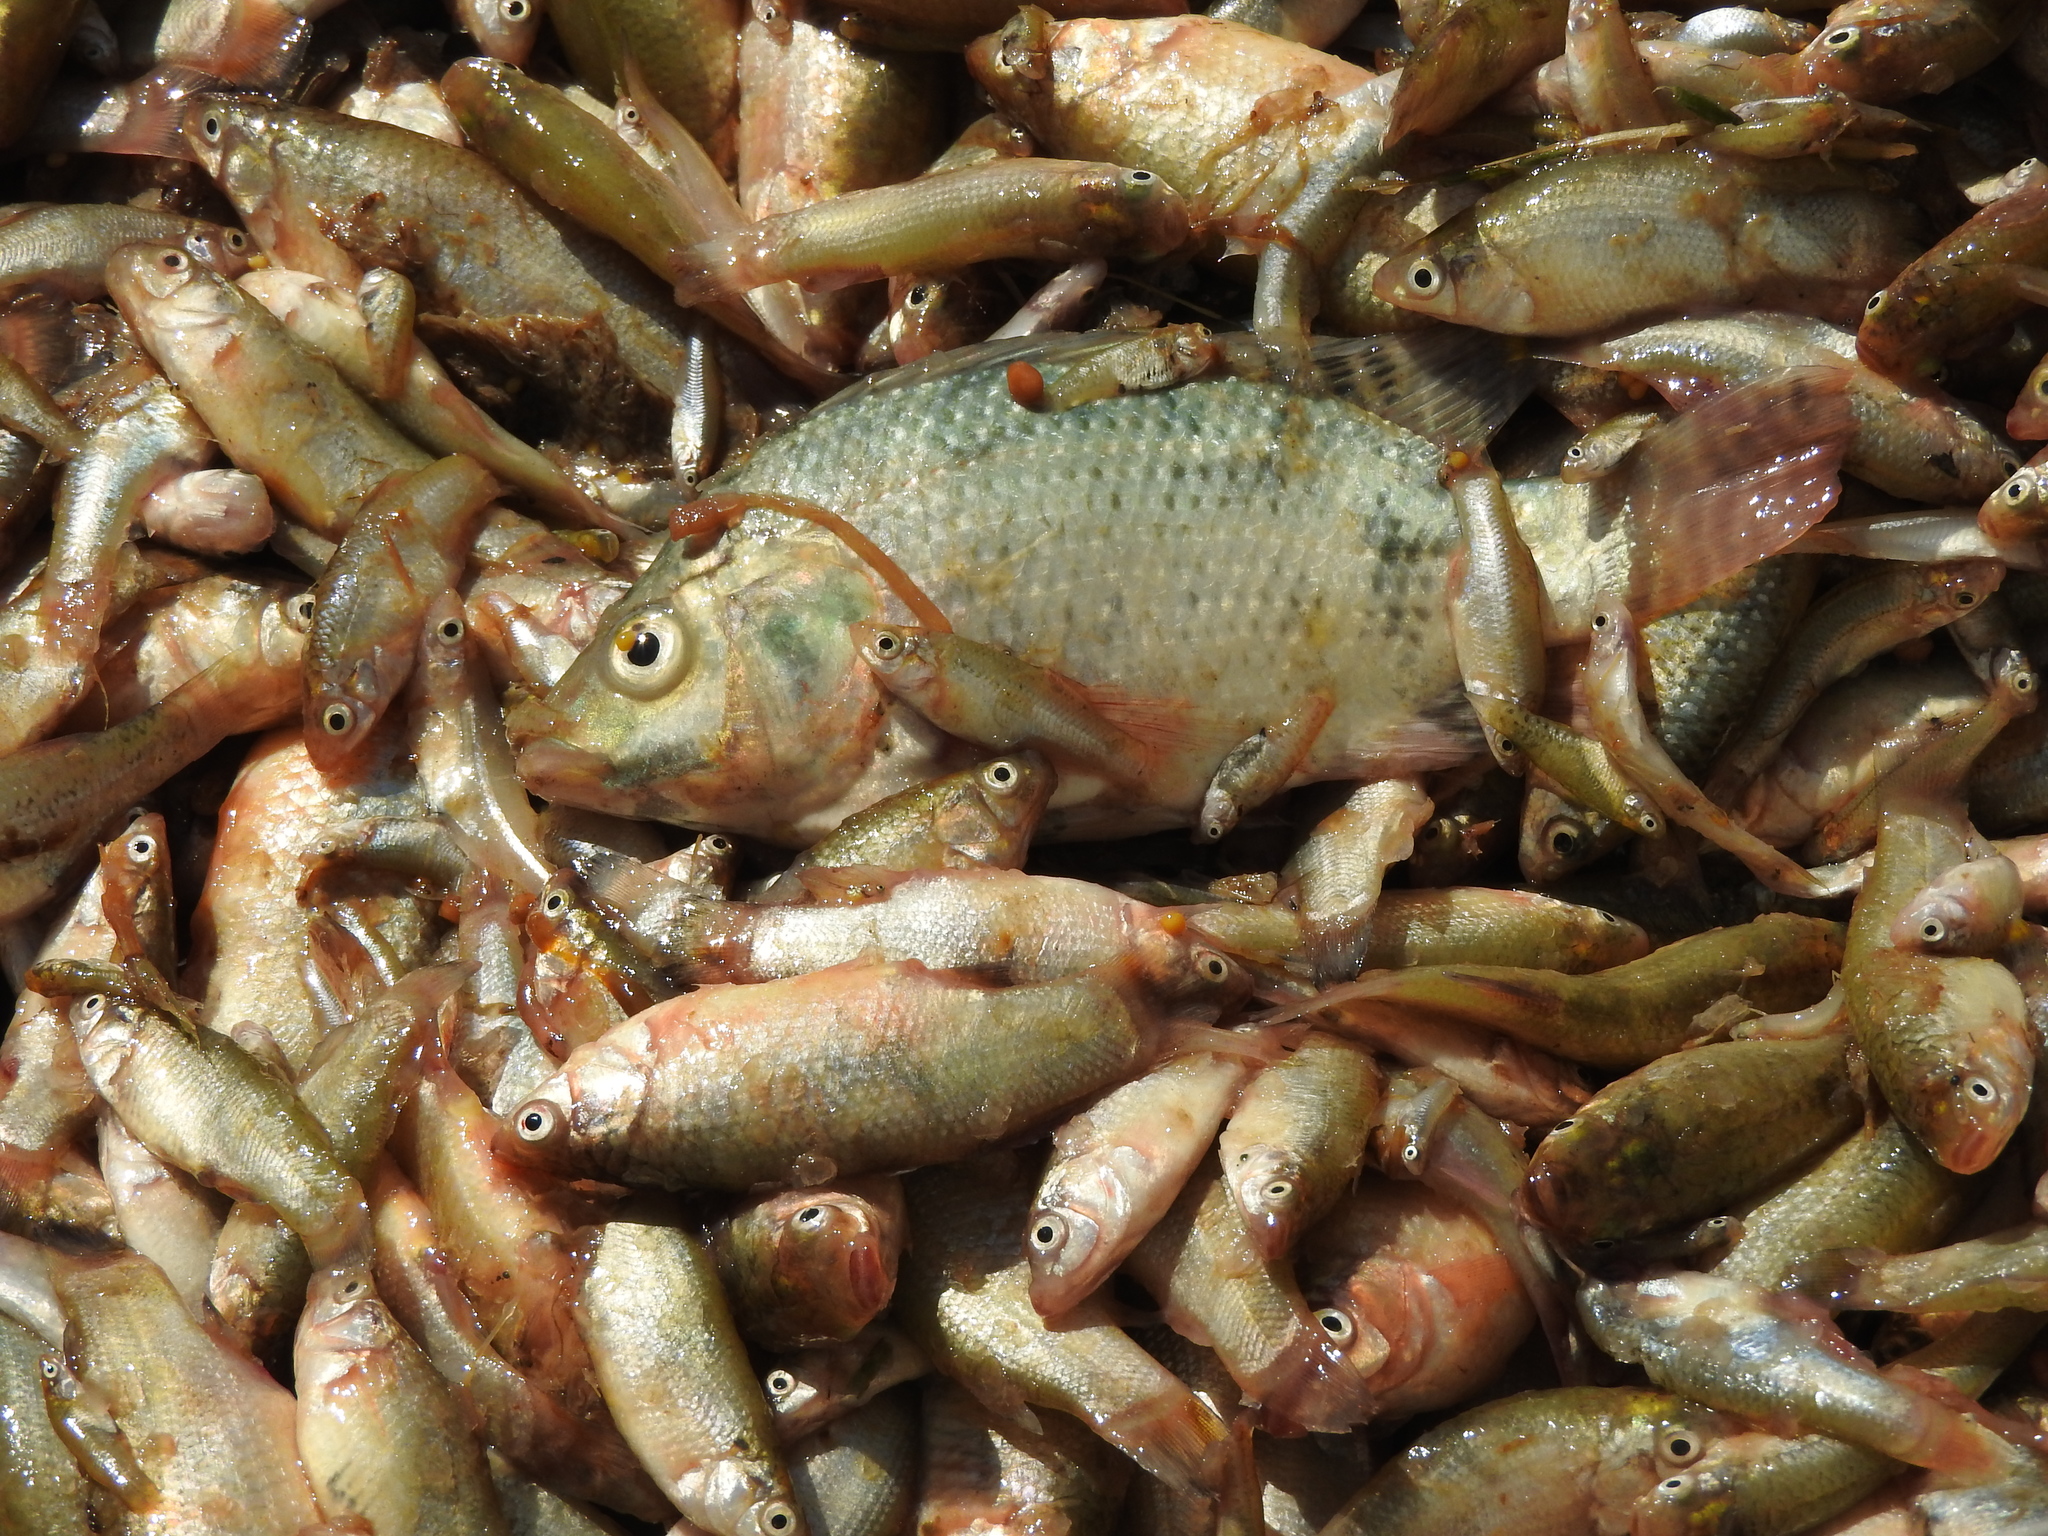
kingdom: Animalia
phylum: Chordata
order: Cyprinodontiformes
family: Goodeidae
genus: Goodea
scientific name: Goodea atripinnis
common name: Blackfin goodea
